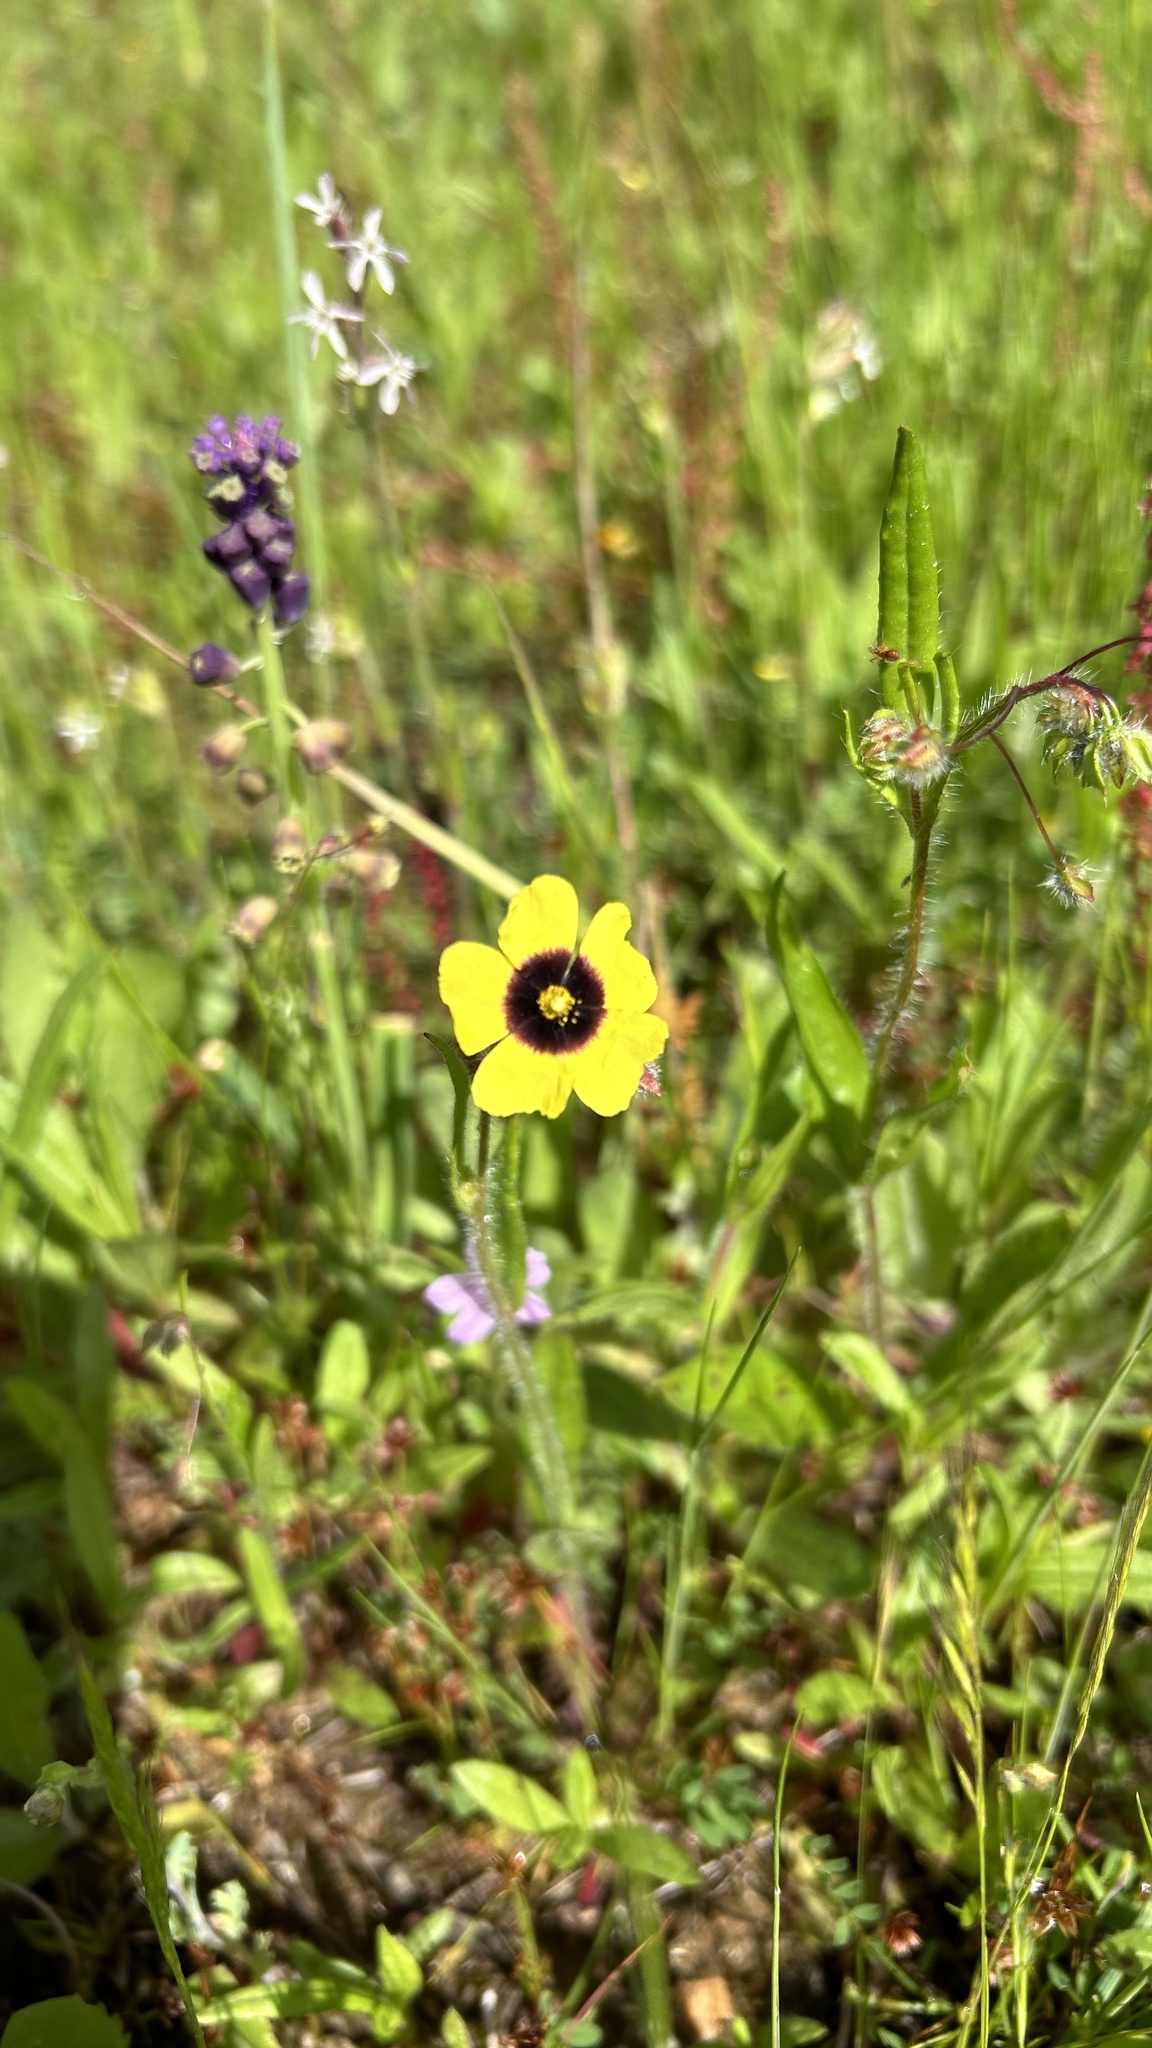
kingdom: Plantae
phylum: Tracheophyta
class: Magnoliopsida
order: Malvales
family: Cistaceae
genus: Tuberaria
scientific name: Tuberaria guttata
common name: Spotted rock-rose
